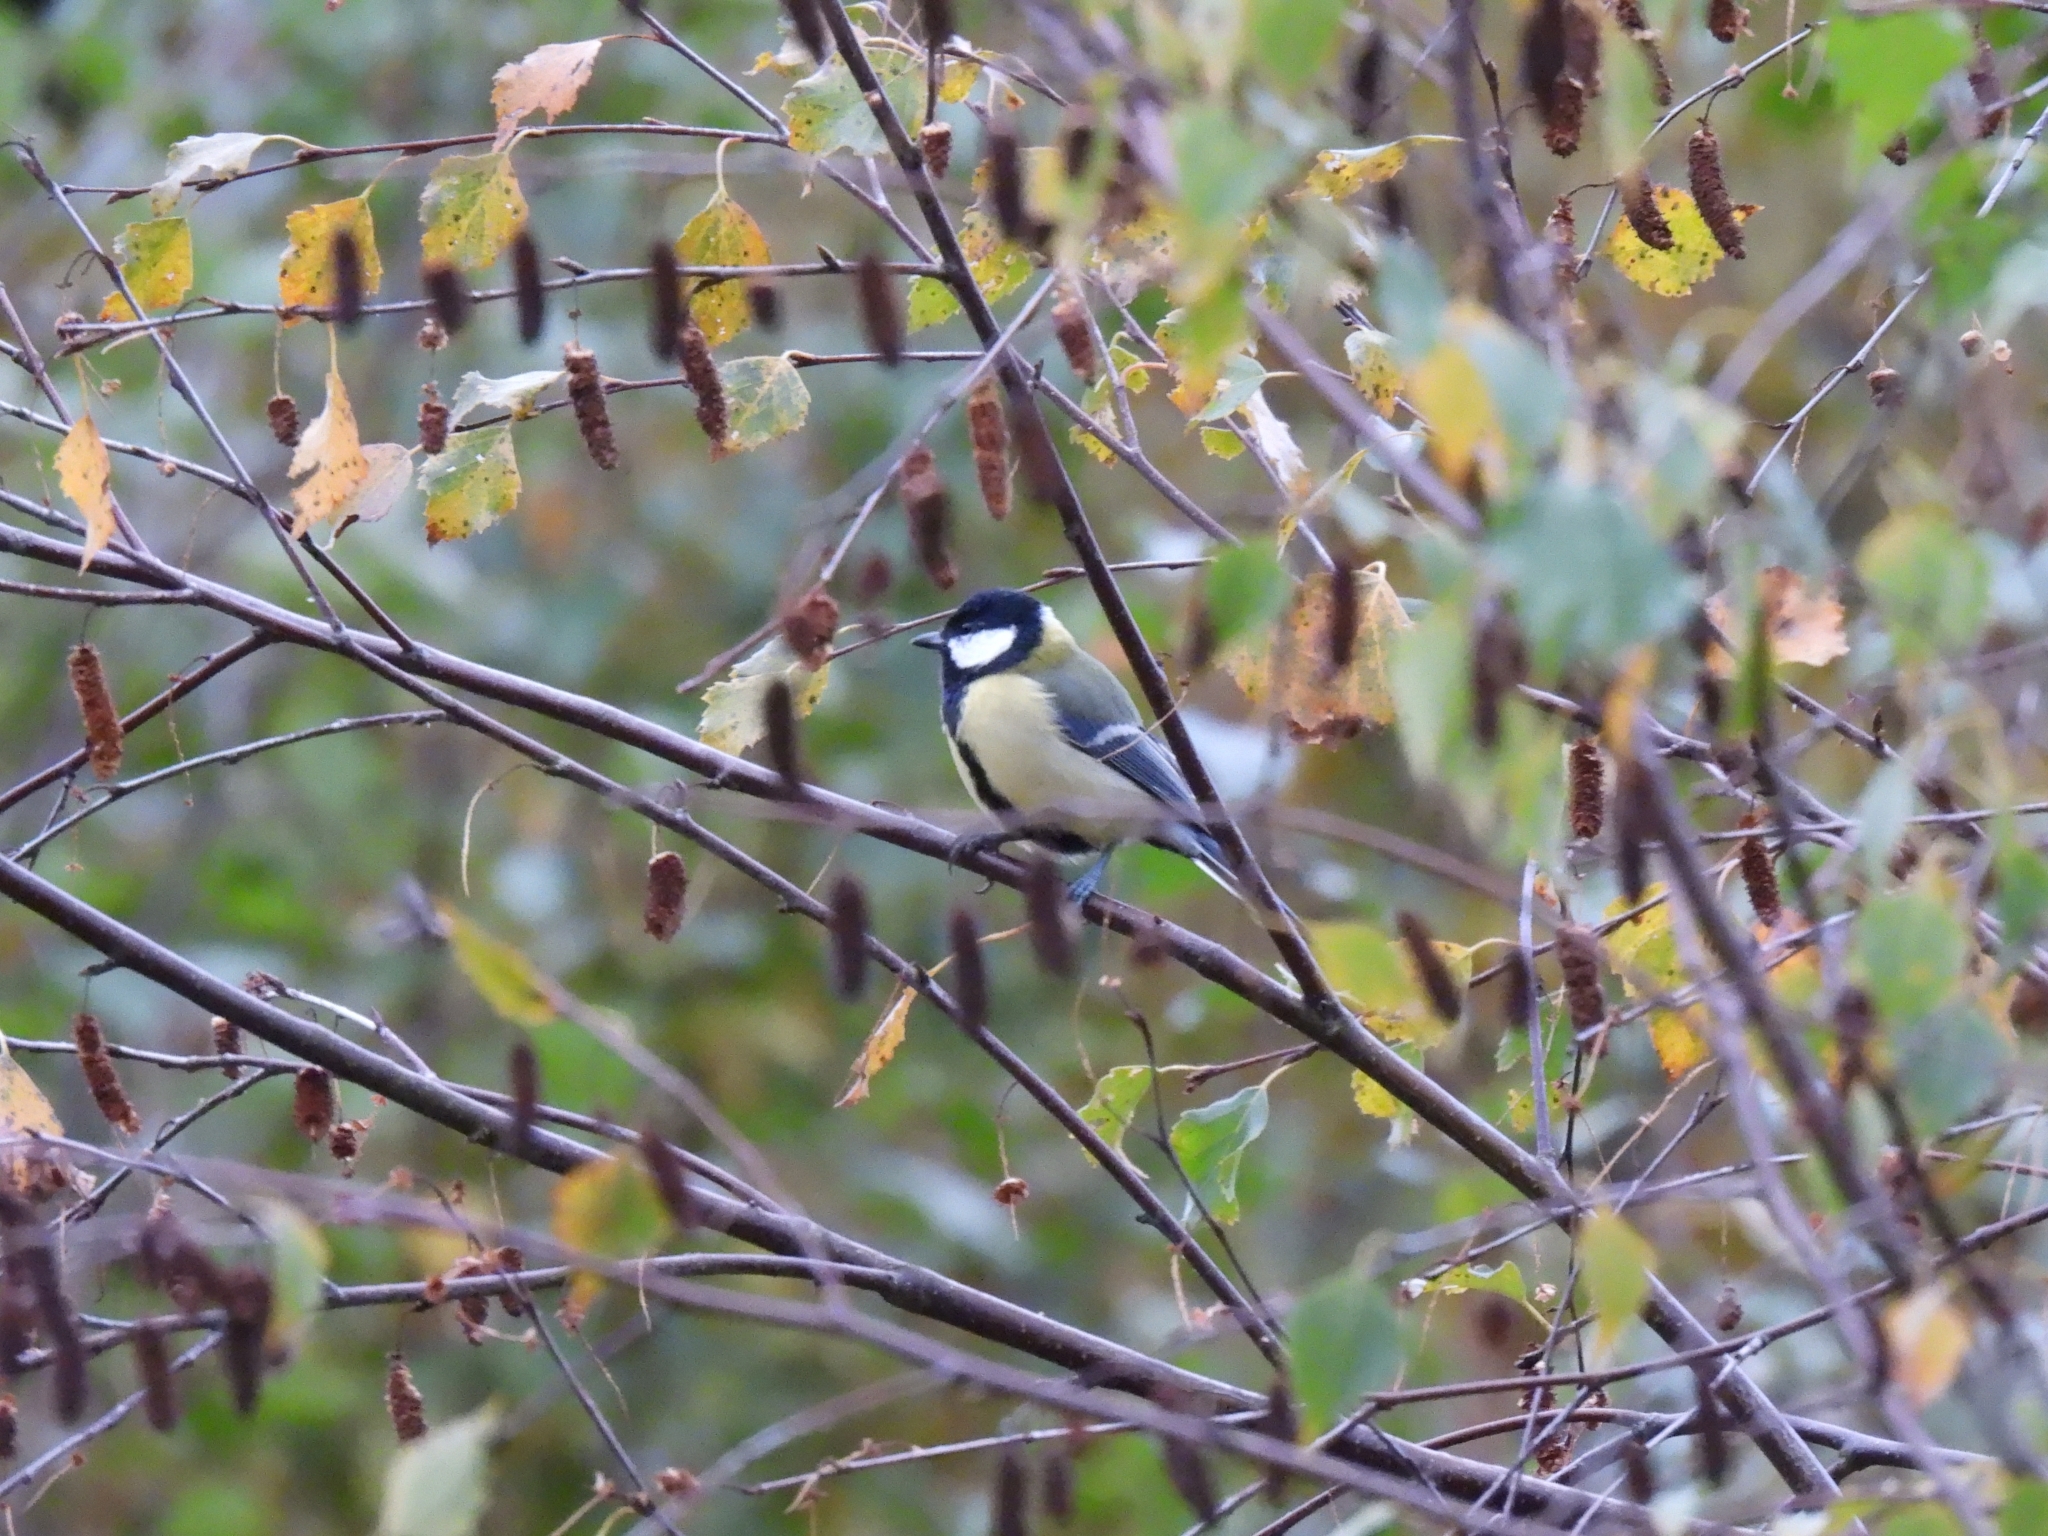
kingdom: Animalia
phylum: Chordata
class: Aves
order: Passeriformes
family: Paridae
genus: Parus
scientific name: Parus major
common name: Great tit
